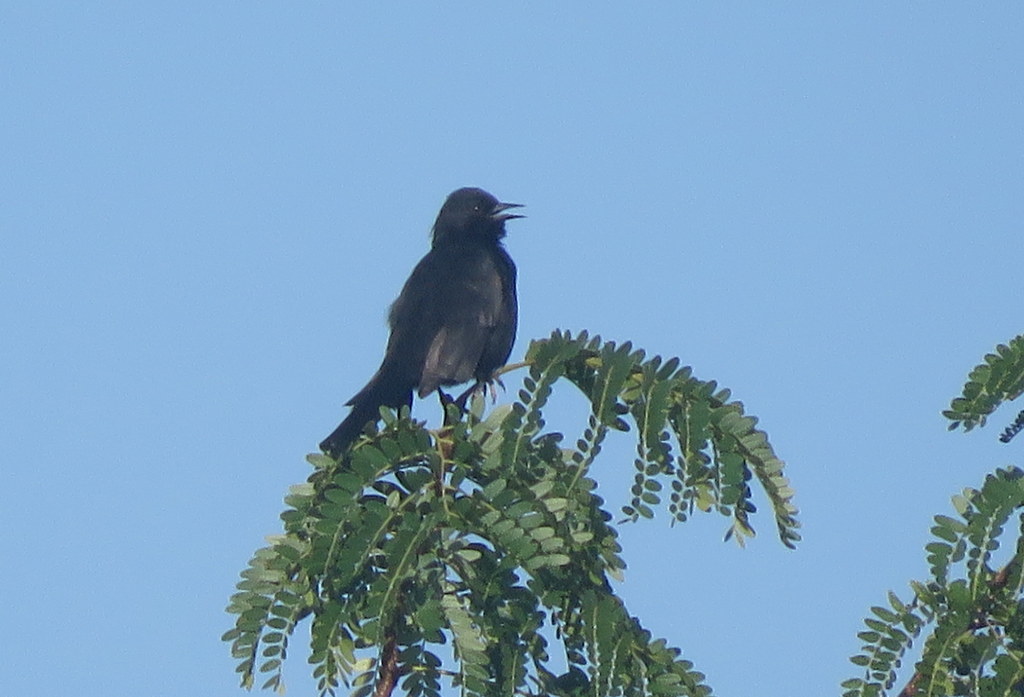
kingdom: Animalia
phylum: Chordata
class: Aves
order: Passeriformes
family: Icteridae
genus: Icterus
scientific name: Icterus cayanensis
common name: Epaulet oriole
